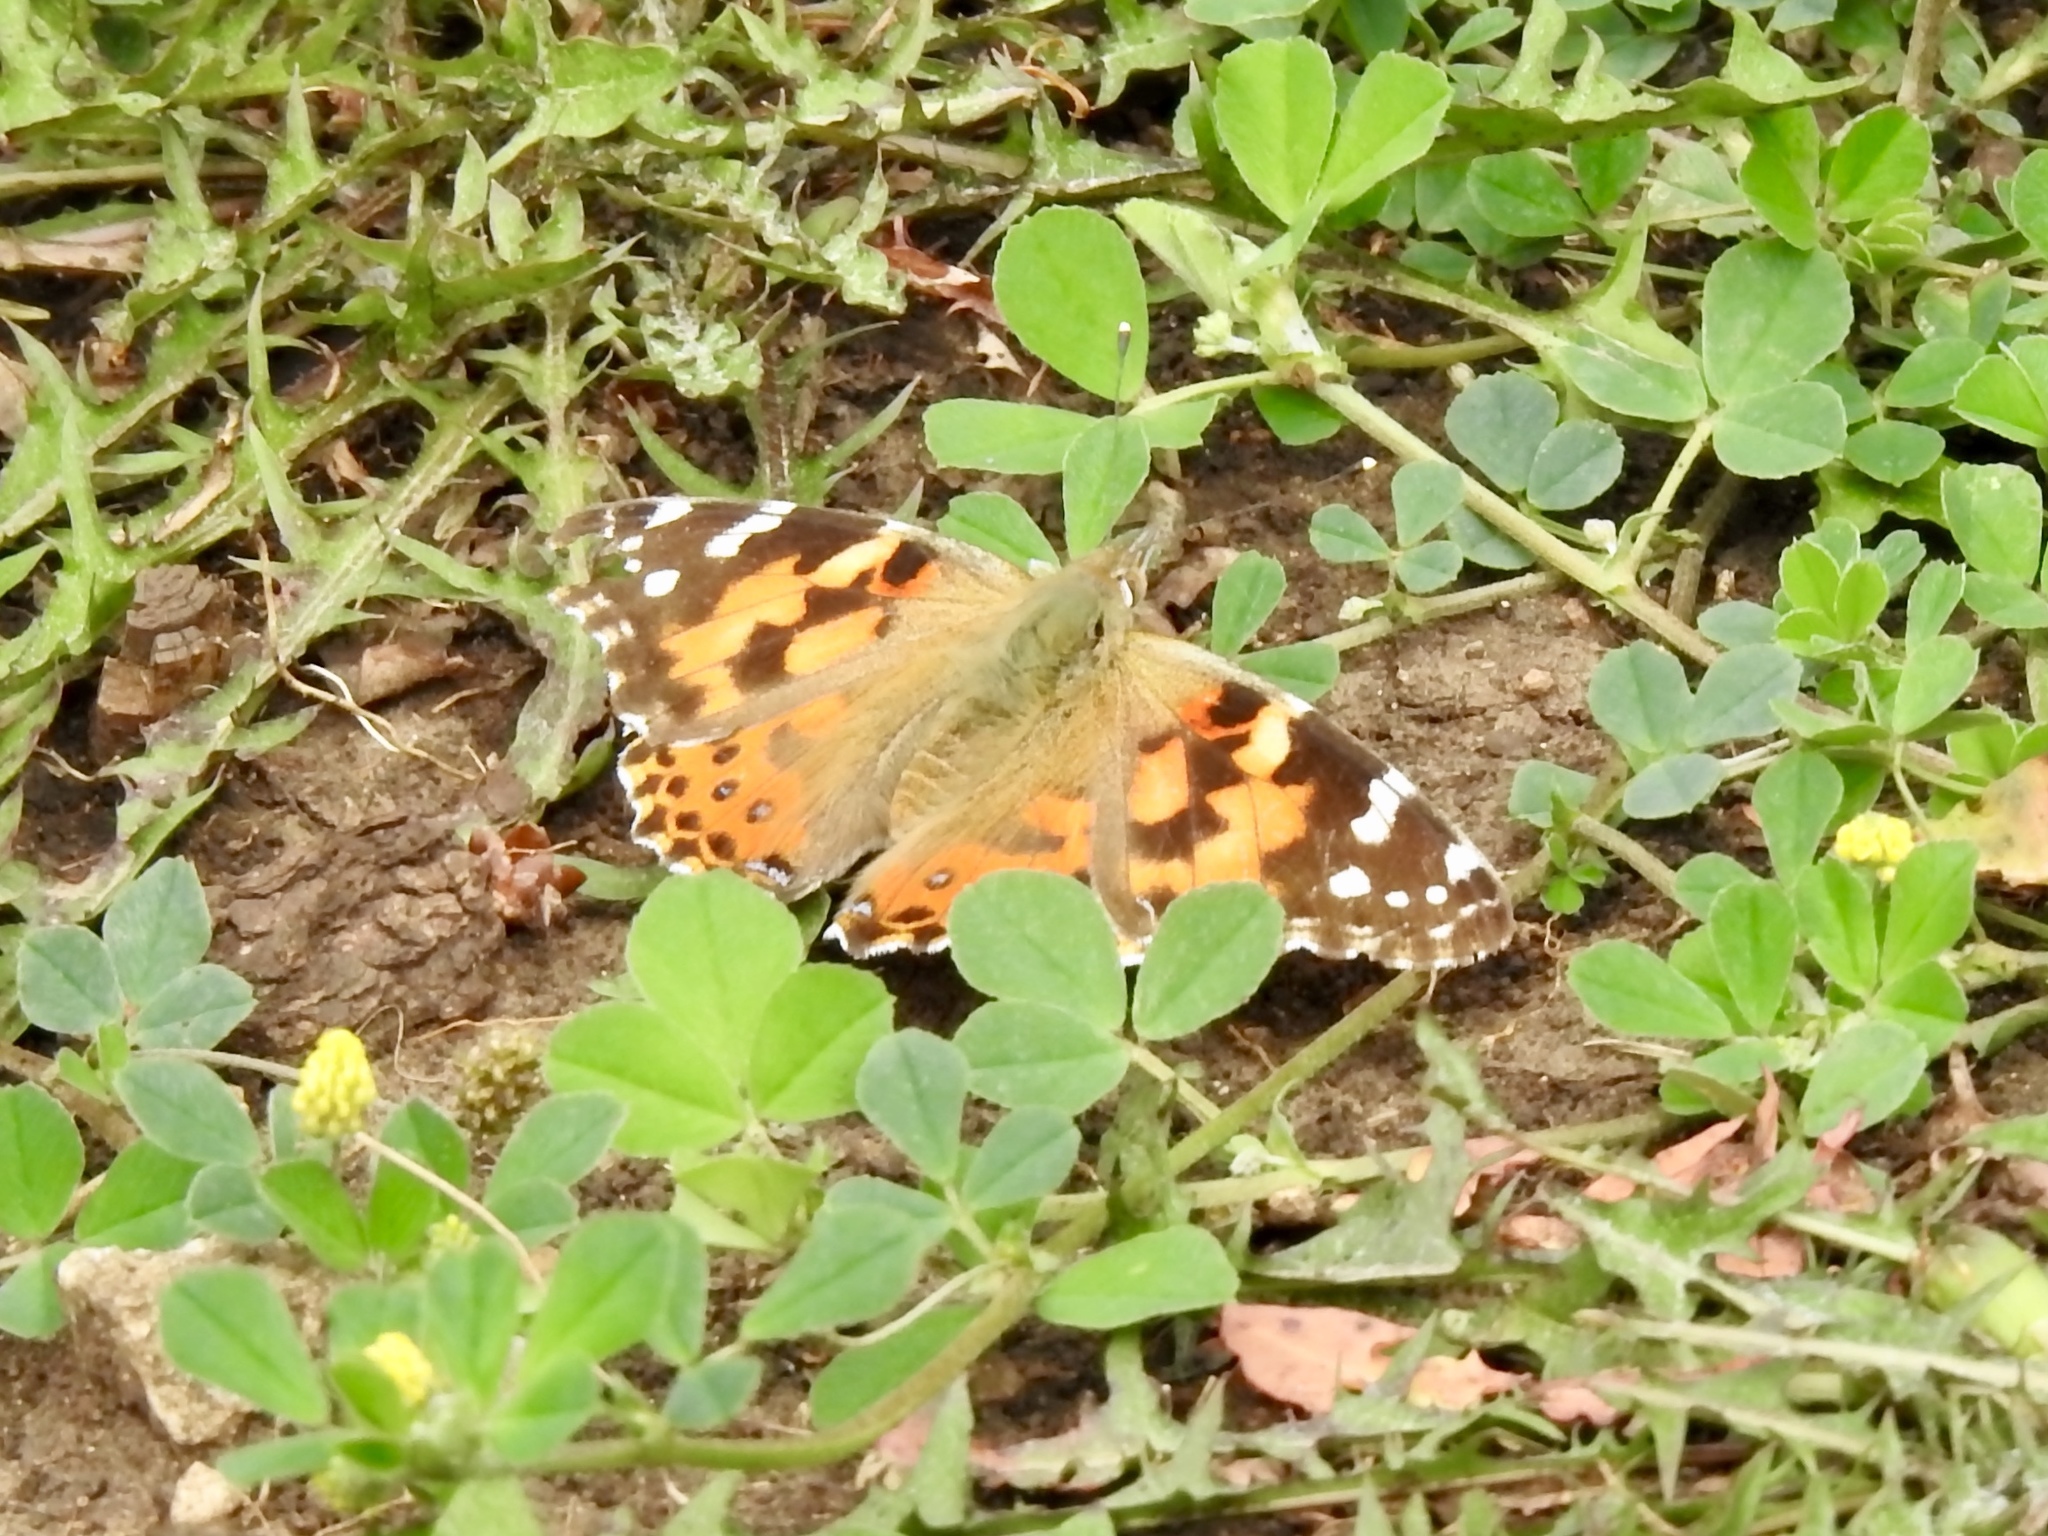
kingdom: Animalia
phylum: Arthropoda
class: Insecta
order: Lepidoptera
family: Nymphalidae
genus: Vanessa
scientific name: Vanessa cardui
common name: Painted lady
